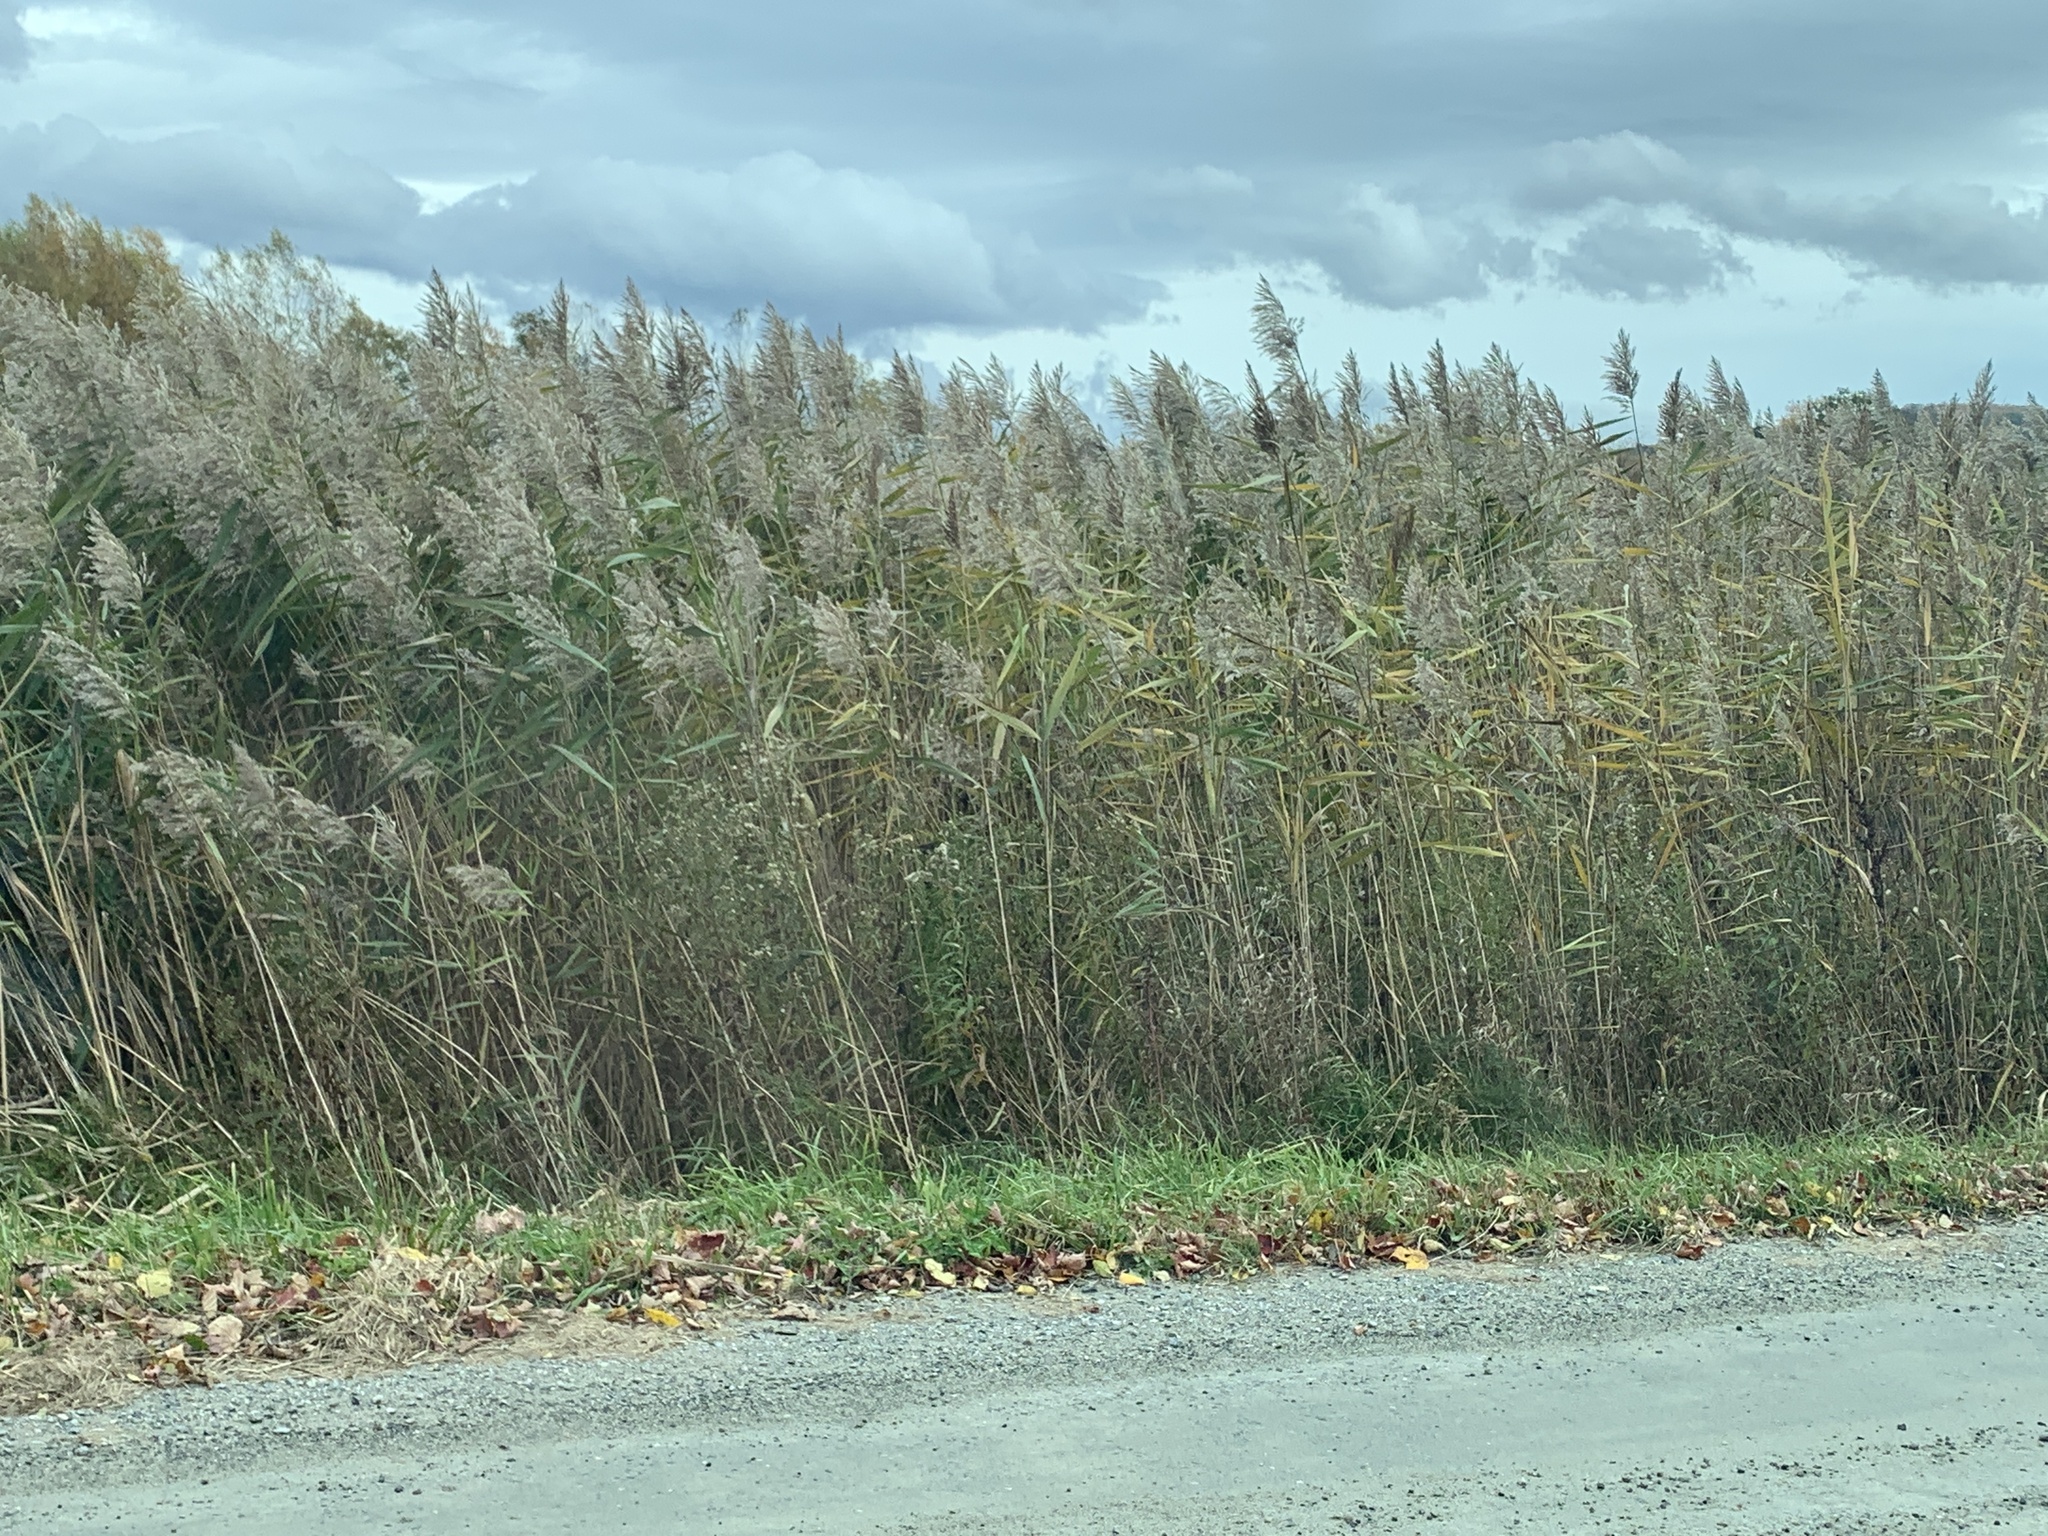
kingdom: Plantae
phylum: Tracheophyta
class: Liliopsida
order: Poales
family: Poaceae
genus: Phragmites
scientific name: Phragmites australis
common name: Common reed
